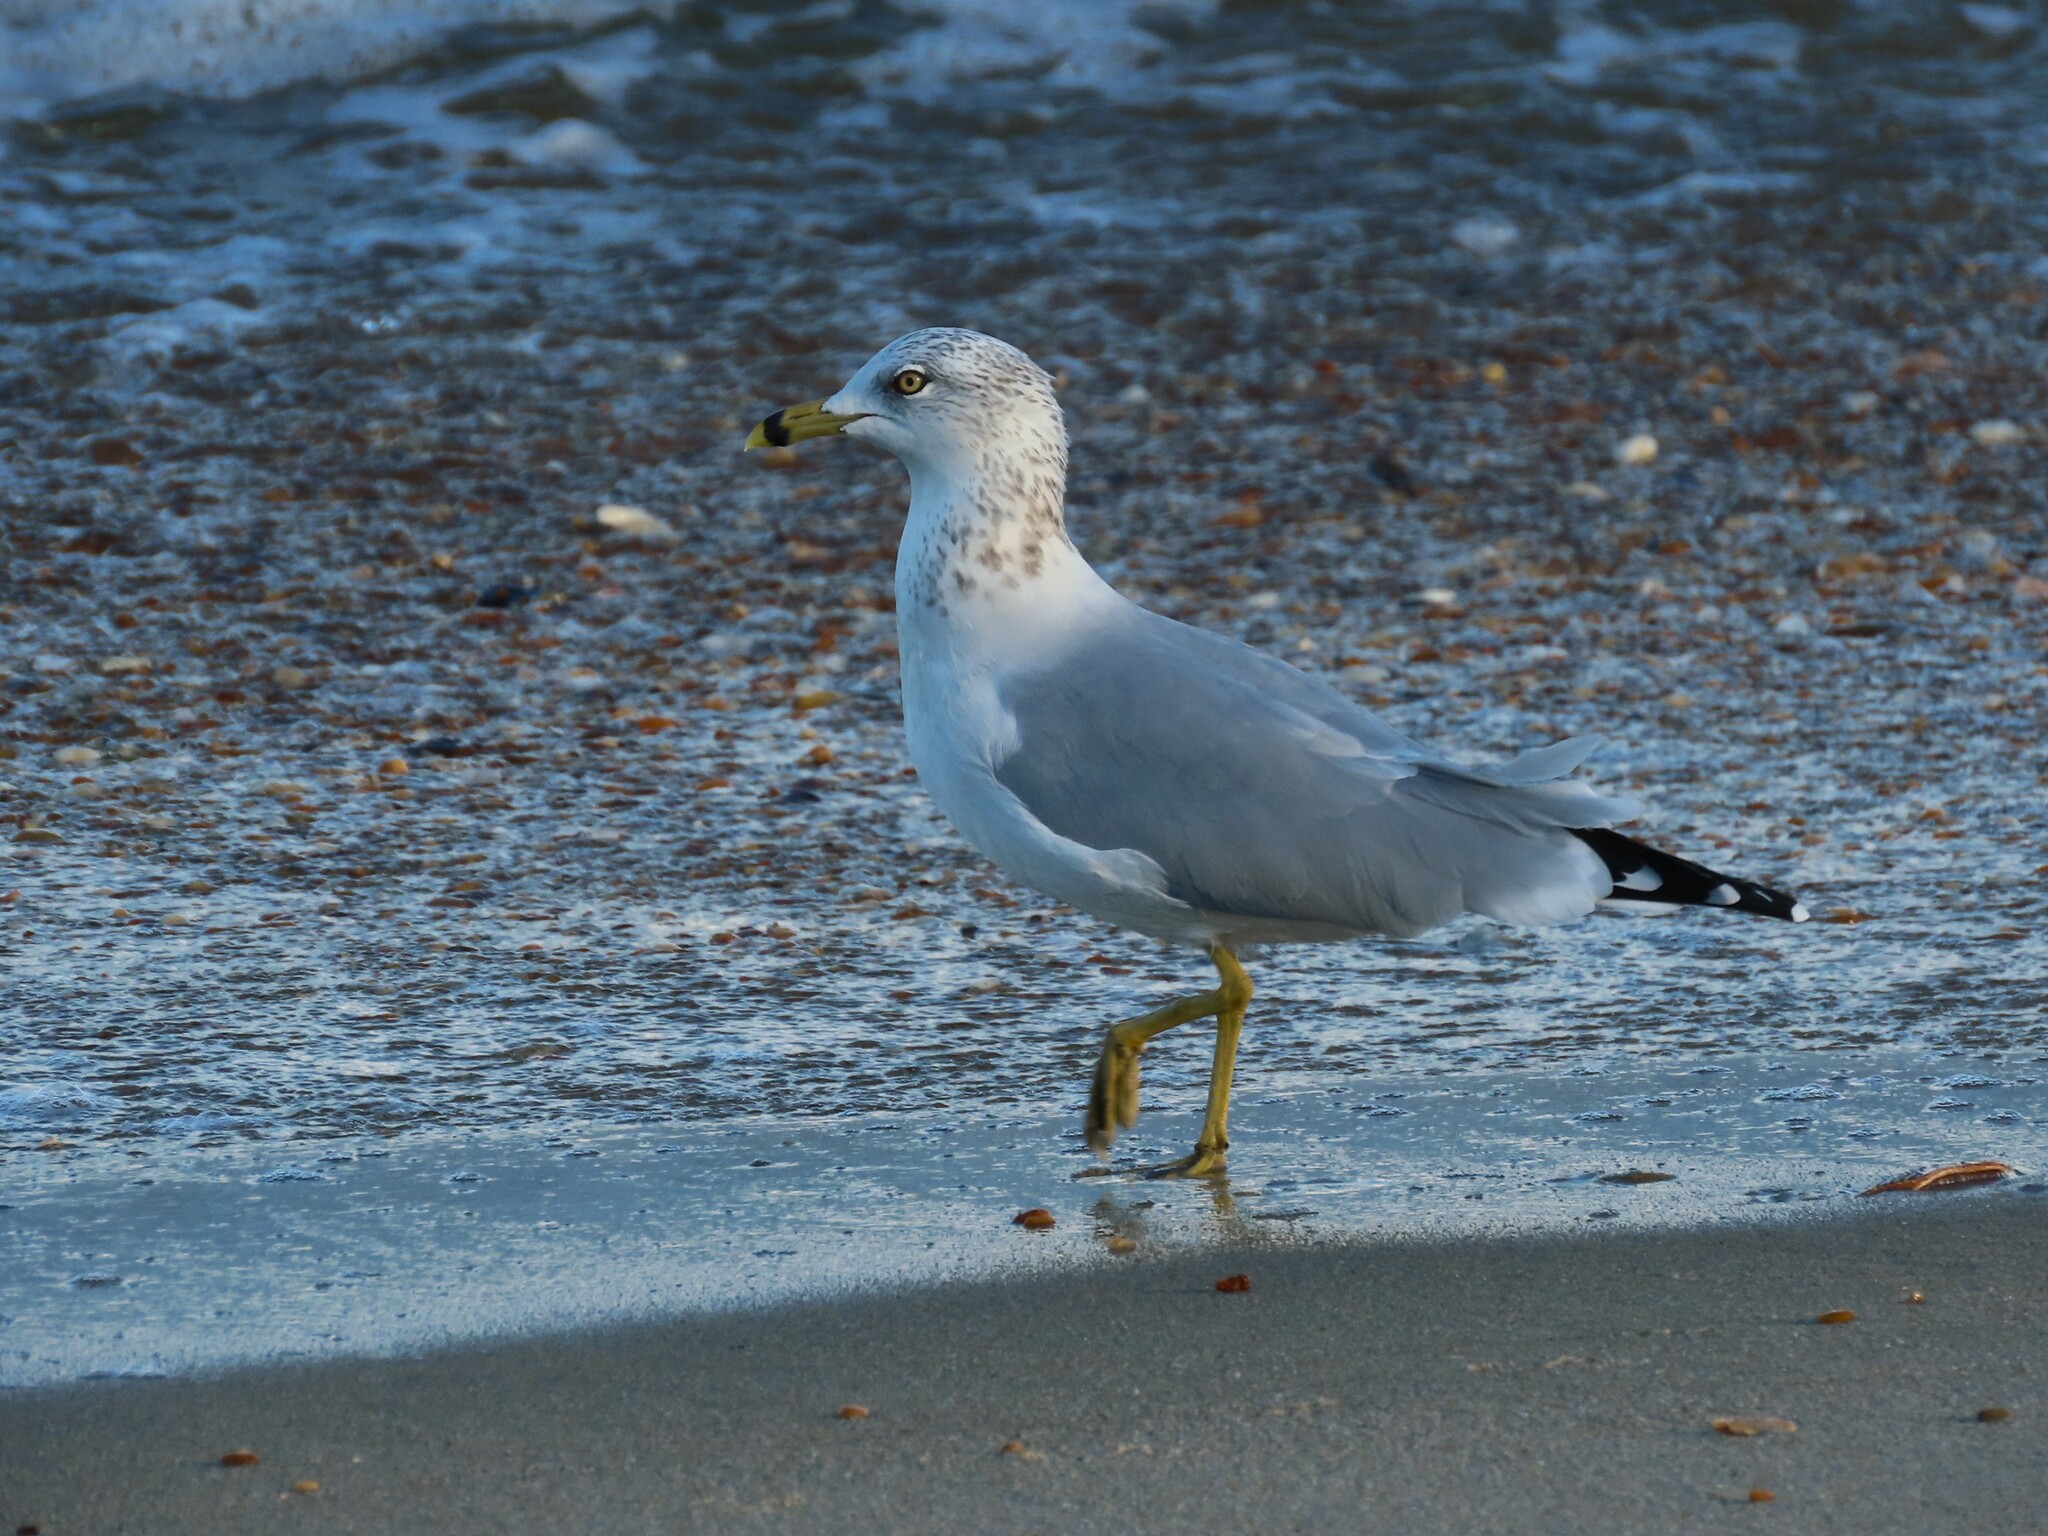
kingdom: Animalia
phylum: Chordata
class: Aves
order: Charadriiformes
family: Laridae
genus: Larus
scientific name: Larus delawarensis
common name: Ring-billed gull
